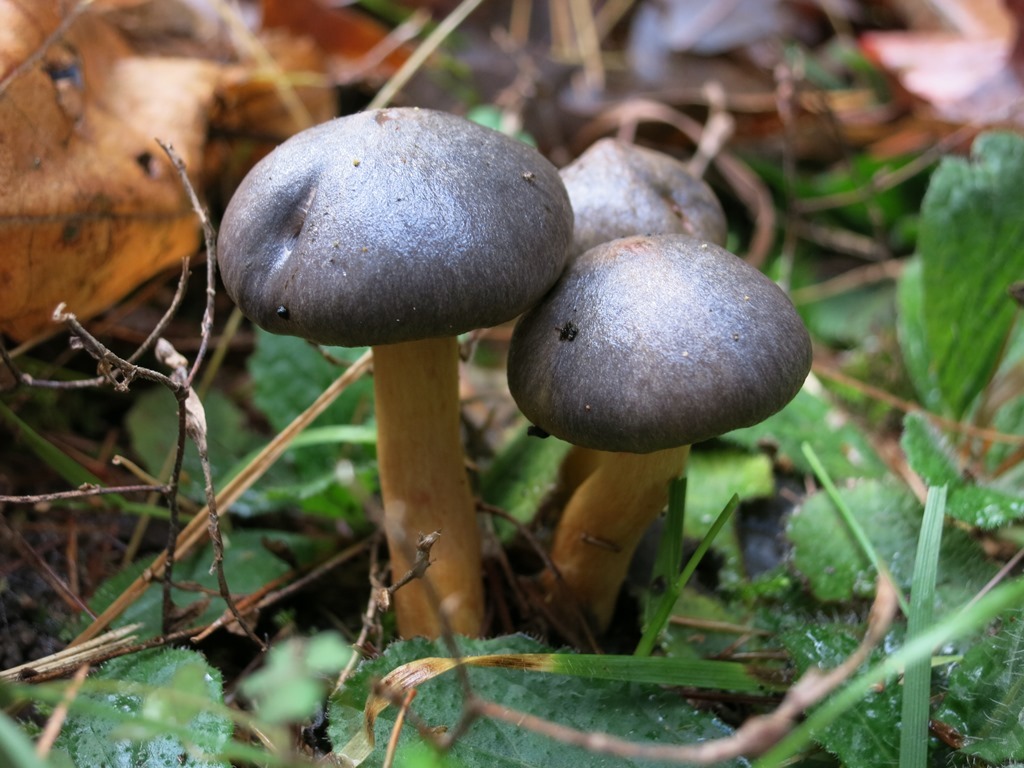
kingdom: Fungi
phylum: Basidiomycota
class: Agaricomycetes
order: Boletales
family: Gomphidiaceae
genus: Chroogomphus
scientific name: Chroogomphus vinicolor
